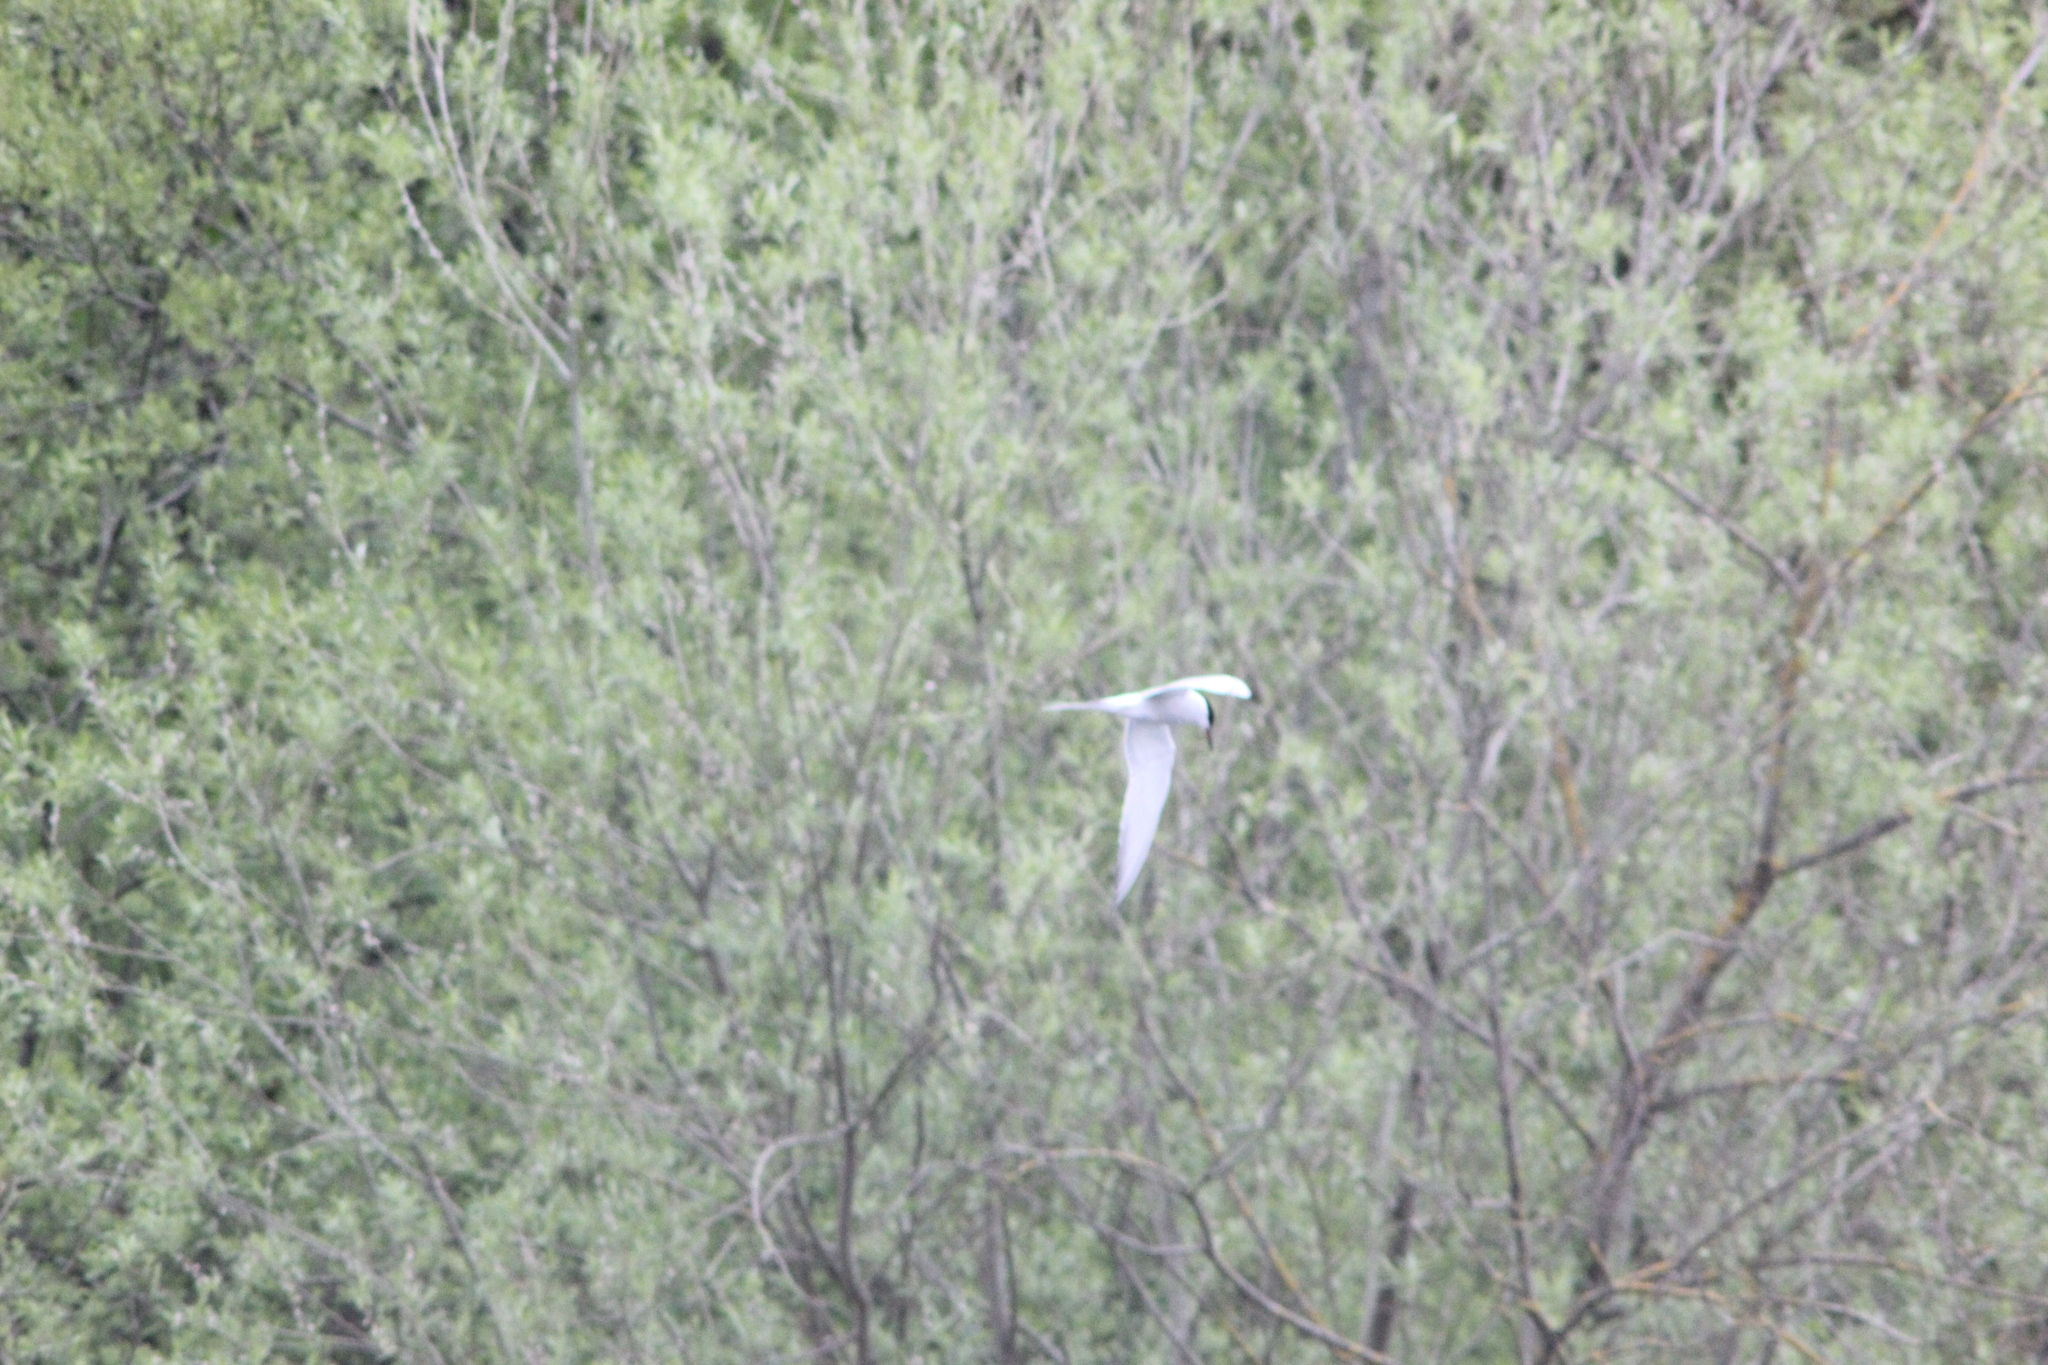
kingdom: Animalia
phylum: Chordata
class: Aves
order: Charadriiformes
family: Laridae
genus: Sterna
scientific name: Sterna hirundo
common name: Common tern
